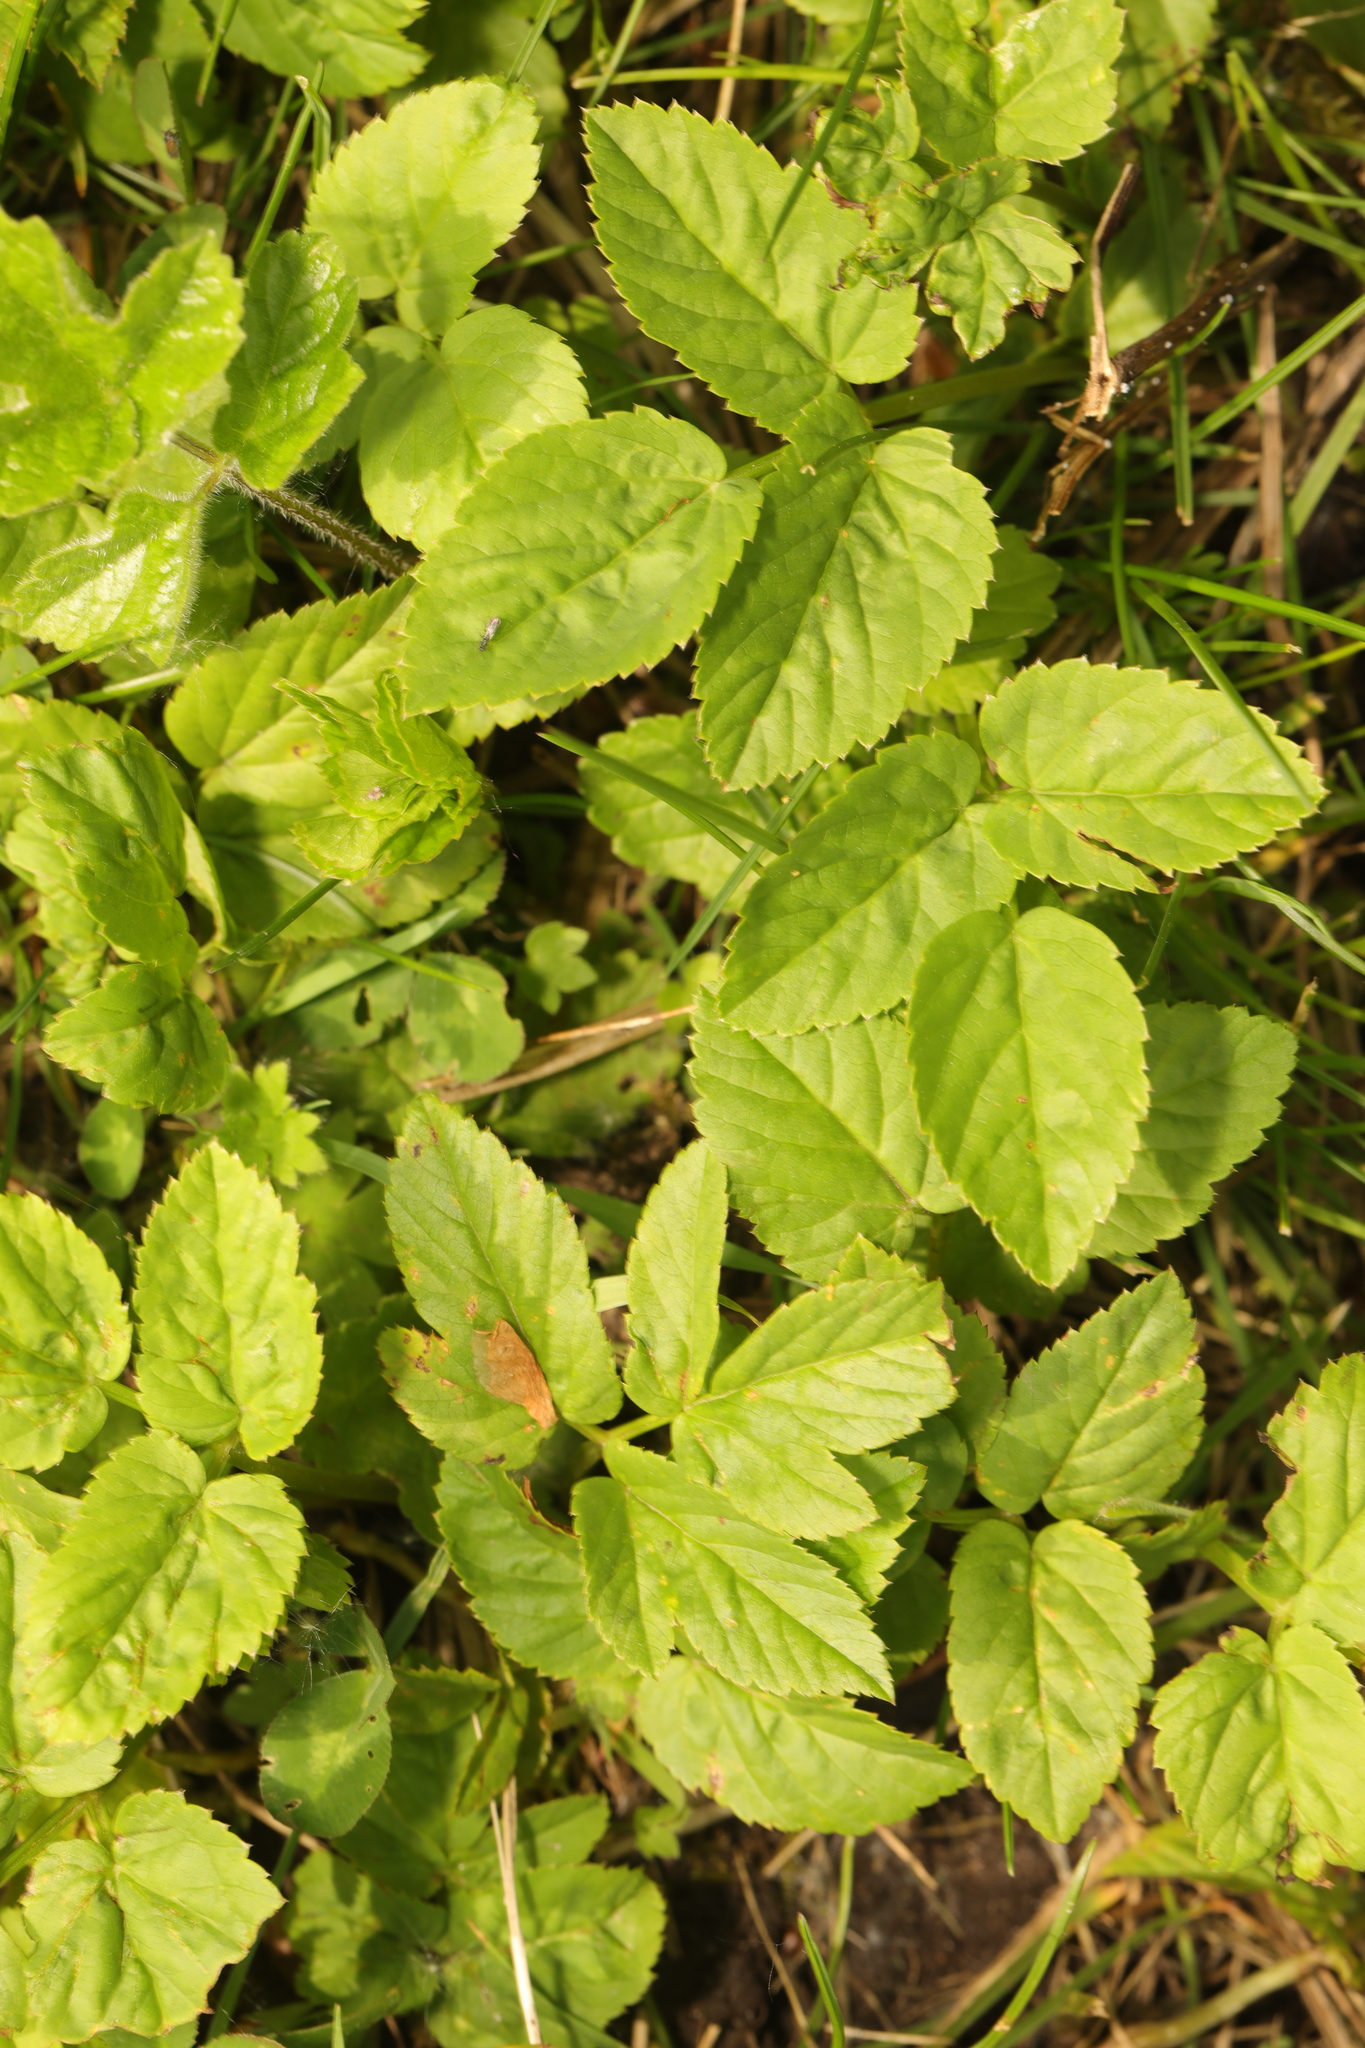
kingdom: Plantae
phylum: Tracheophyta
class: Magnoliopsida
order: Apiales
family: Apiaceae
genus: Aegopodium
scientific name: Aegopodium podagraria
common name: Ground-elder
